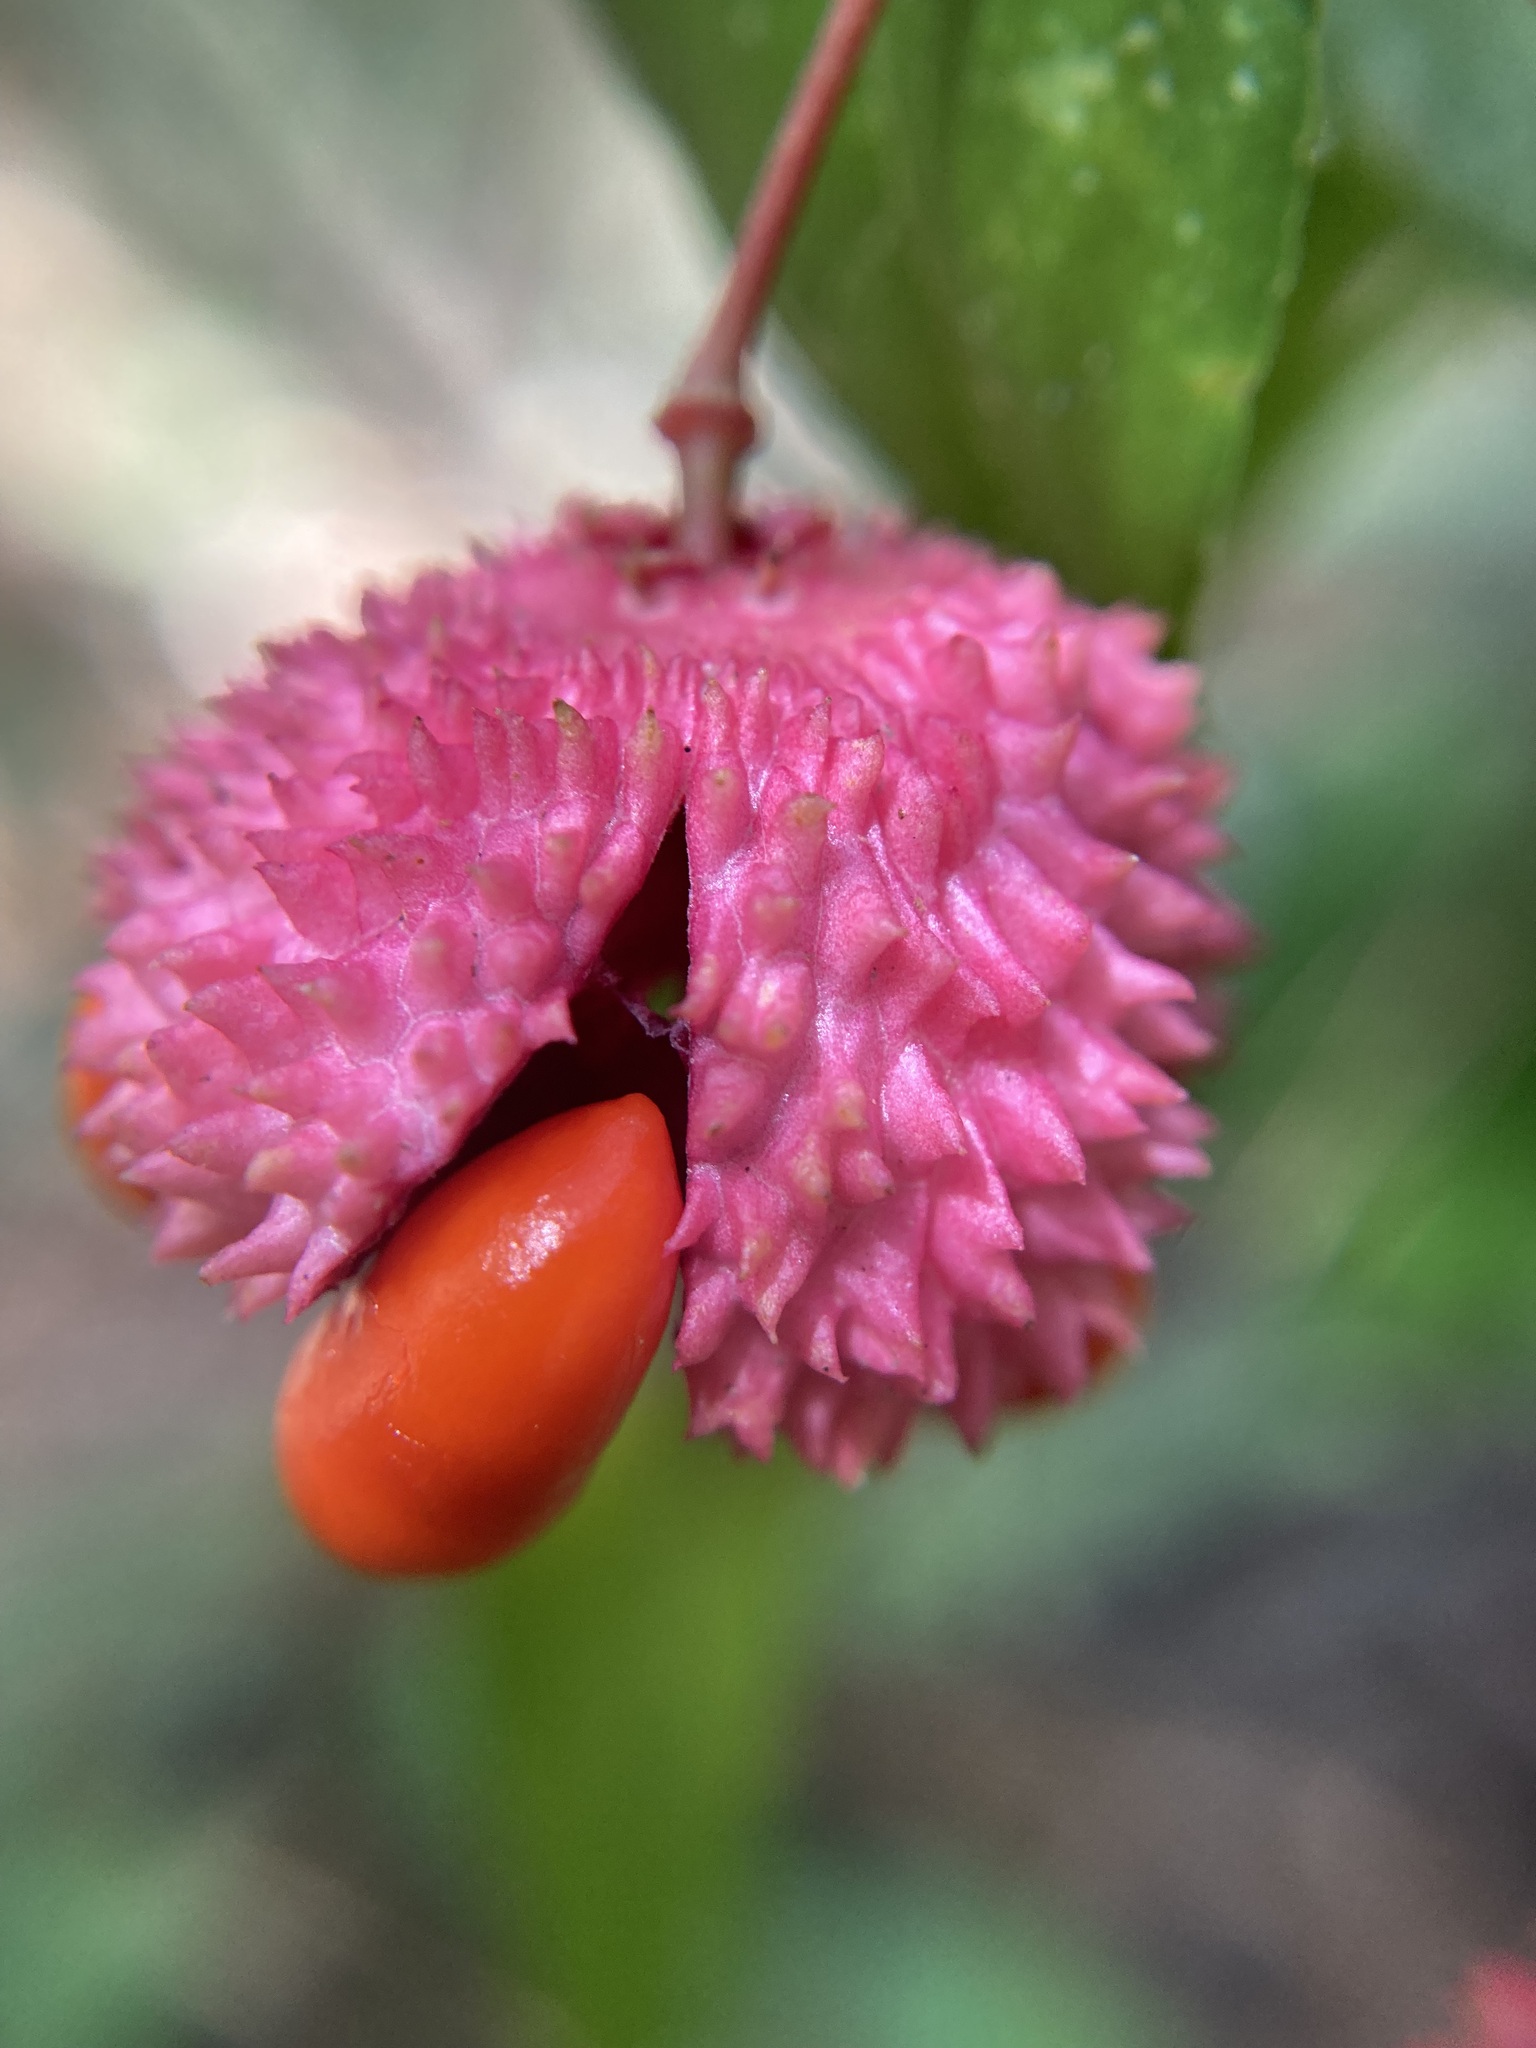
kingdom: Plantae
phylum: Tracheophyta
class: Magnoliopsida
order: Celastrales
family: Celastraceae
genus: Euonymus
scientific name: Euonymus americanus
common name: Bursting-heart
